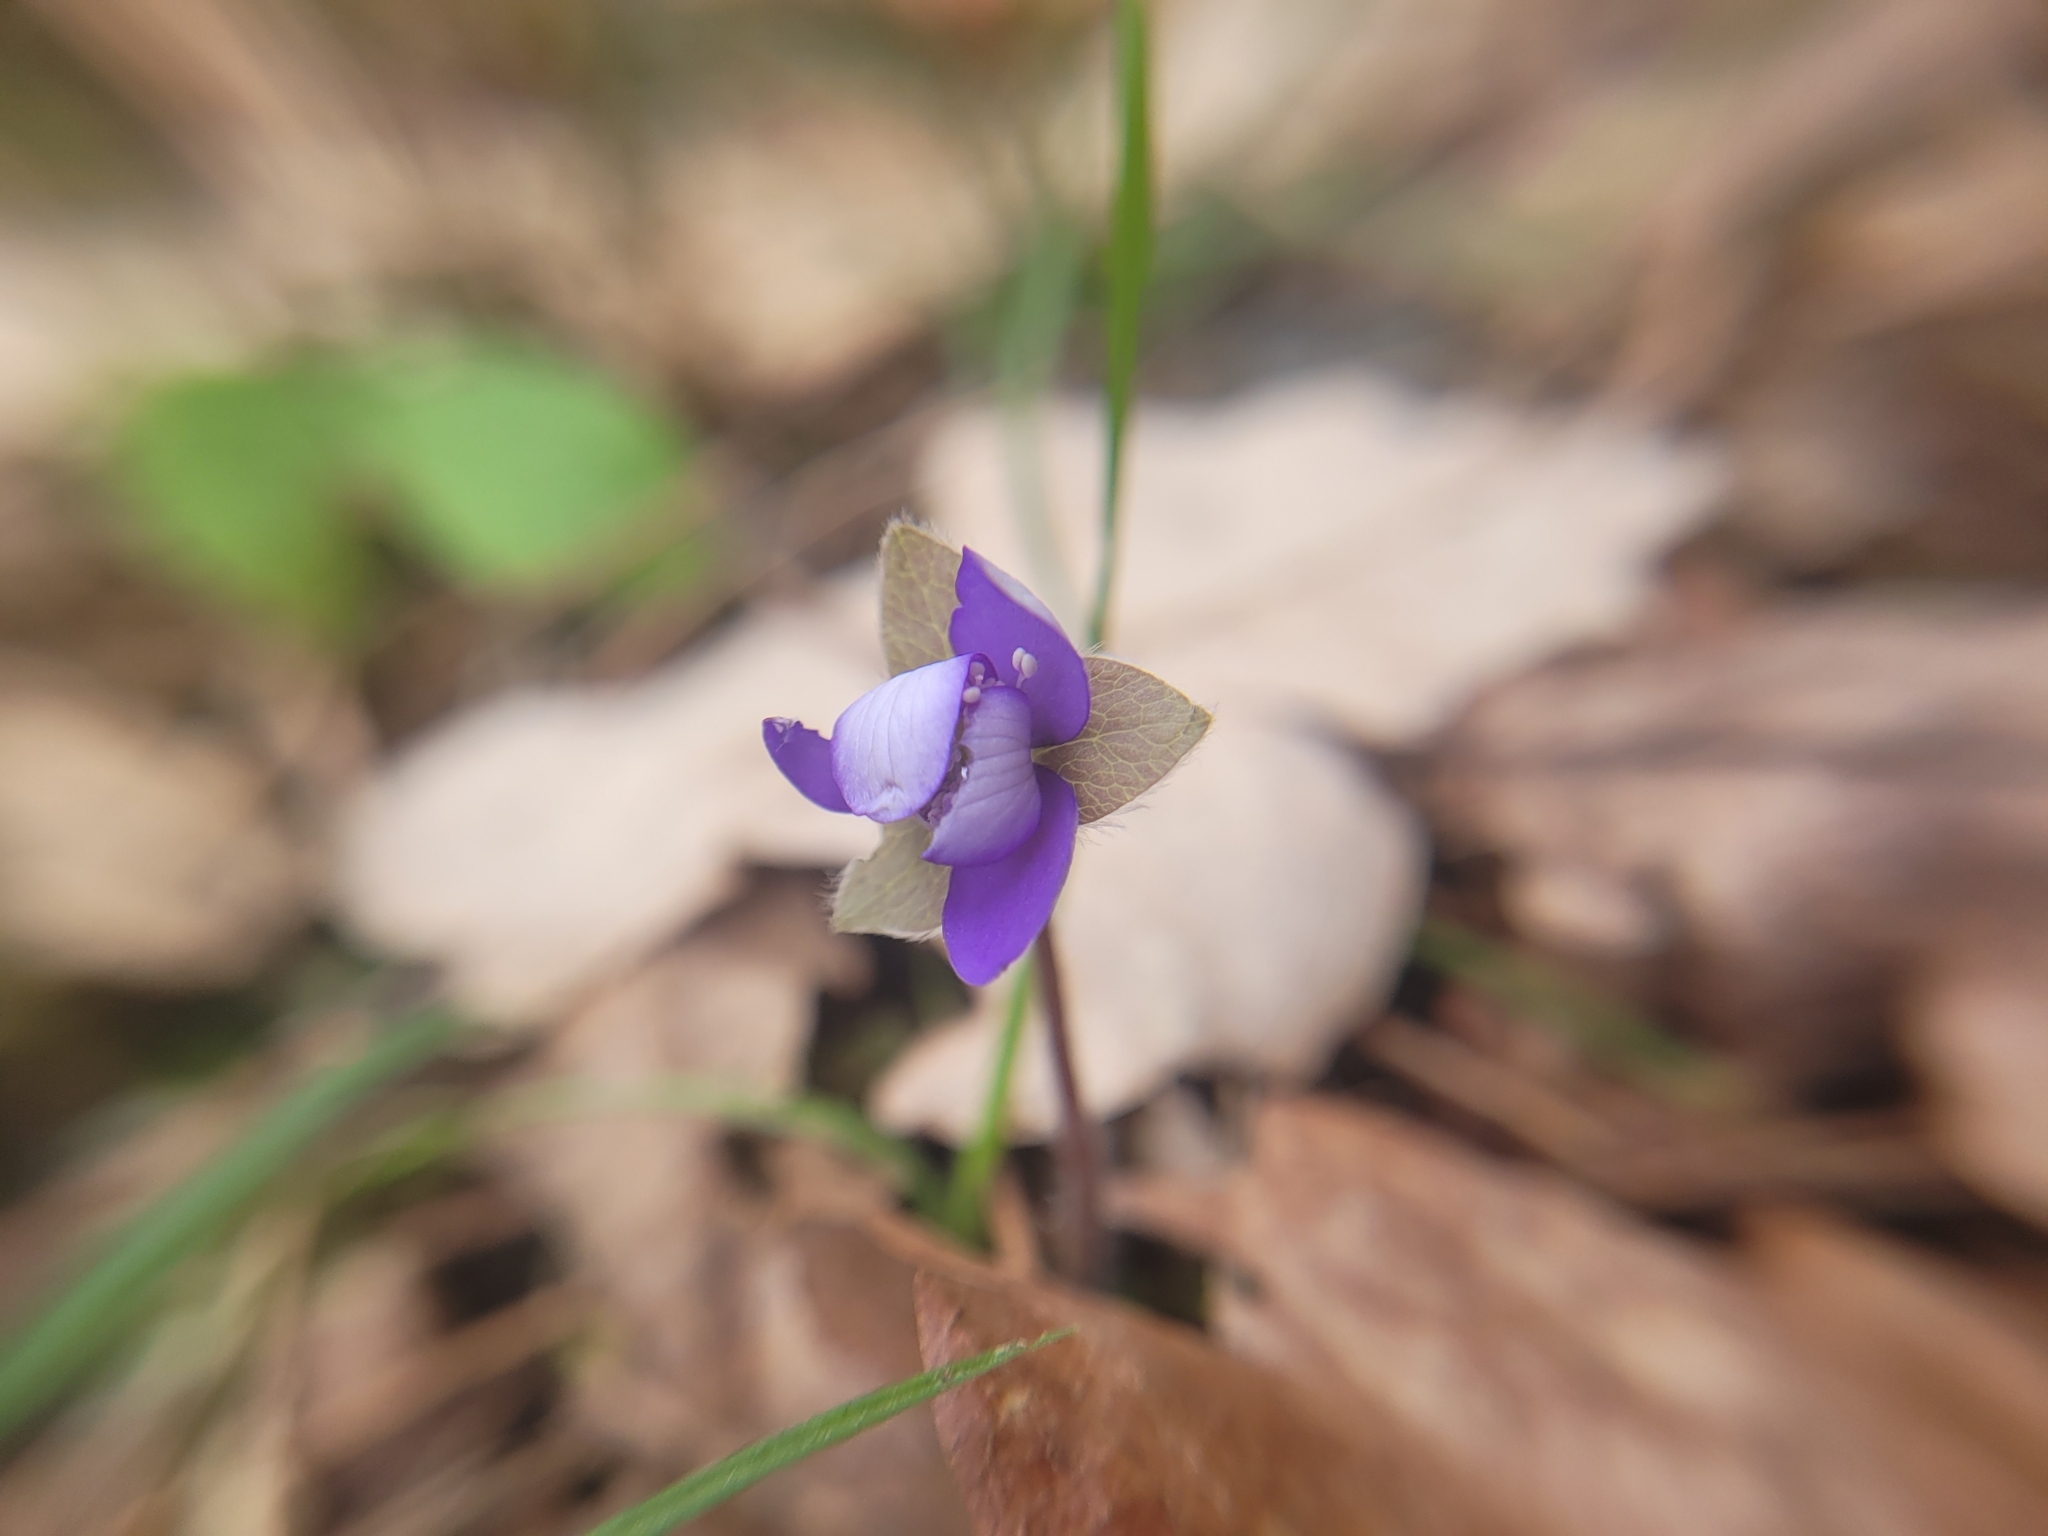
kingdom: Plantae
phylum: Tracheophyta
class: Magnoliopsida
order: Ranunculales
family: Ranunculaceae
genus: Hepatica
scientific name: Hepatica nobilis
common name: Liverleaf
